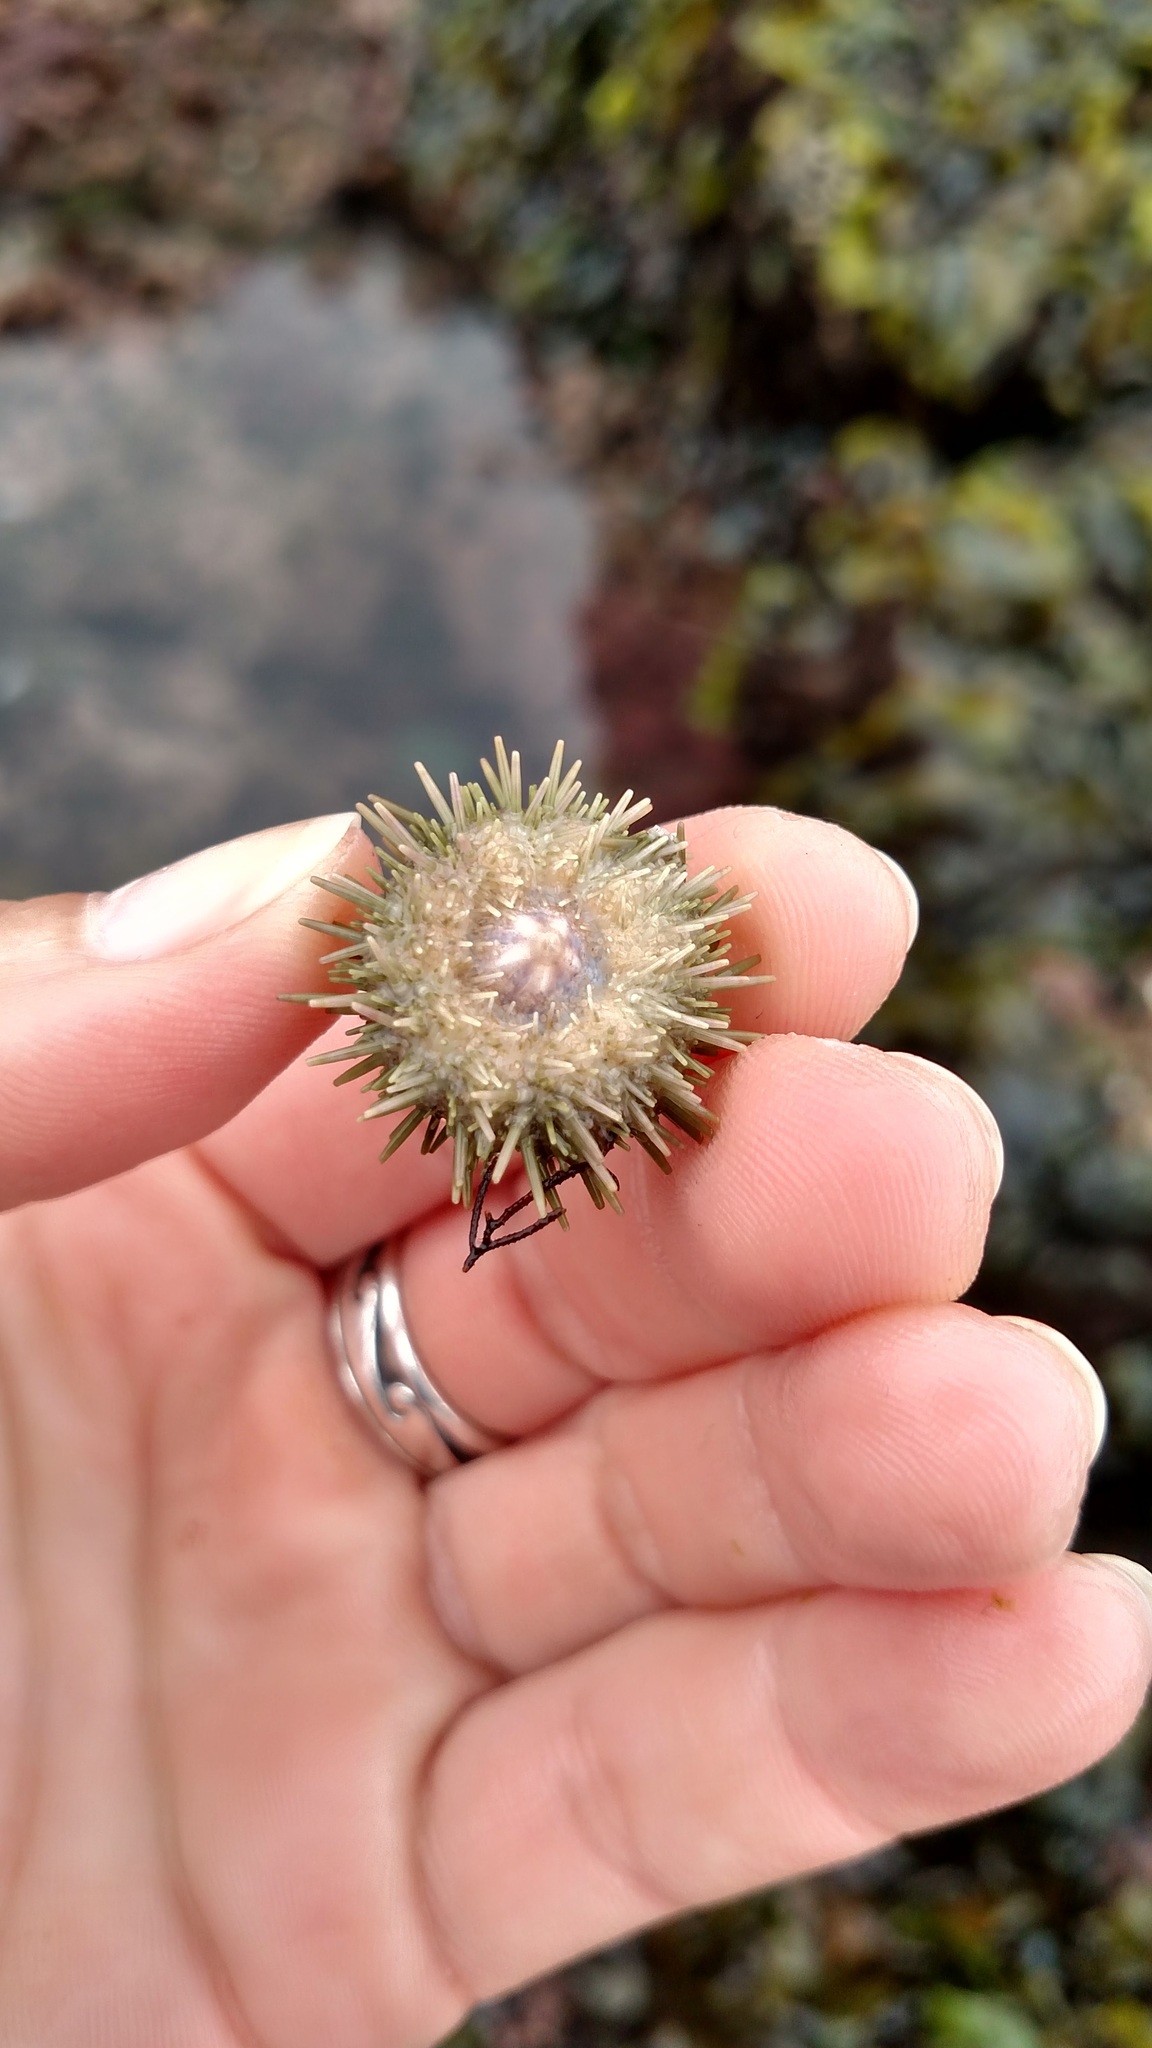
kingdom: Animalia
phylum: Echinodermata
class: Echinoidea
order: Camarodonta
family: Strongylocentrotidae
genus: Strongylocentrotus
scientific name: Strongylocentrotus purpuratus
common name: Purple sea urchin
